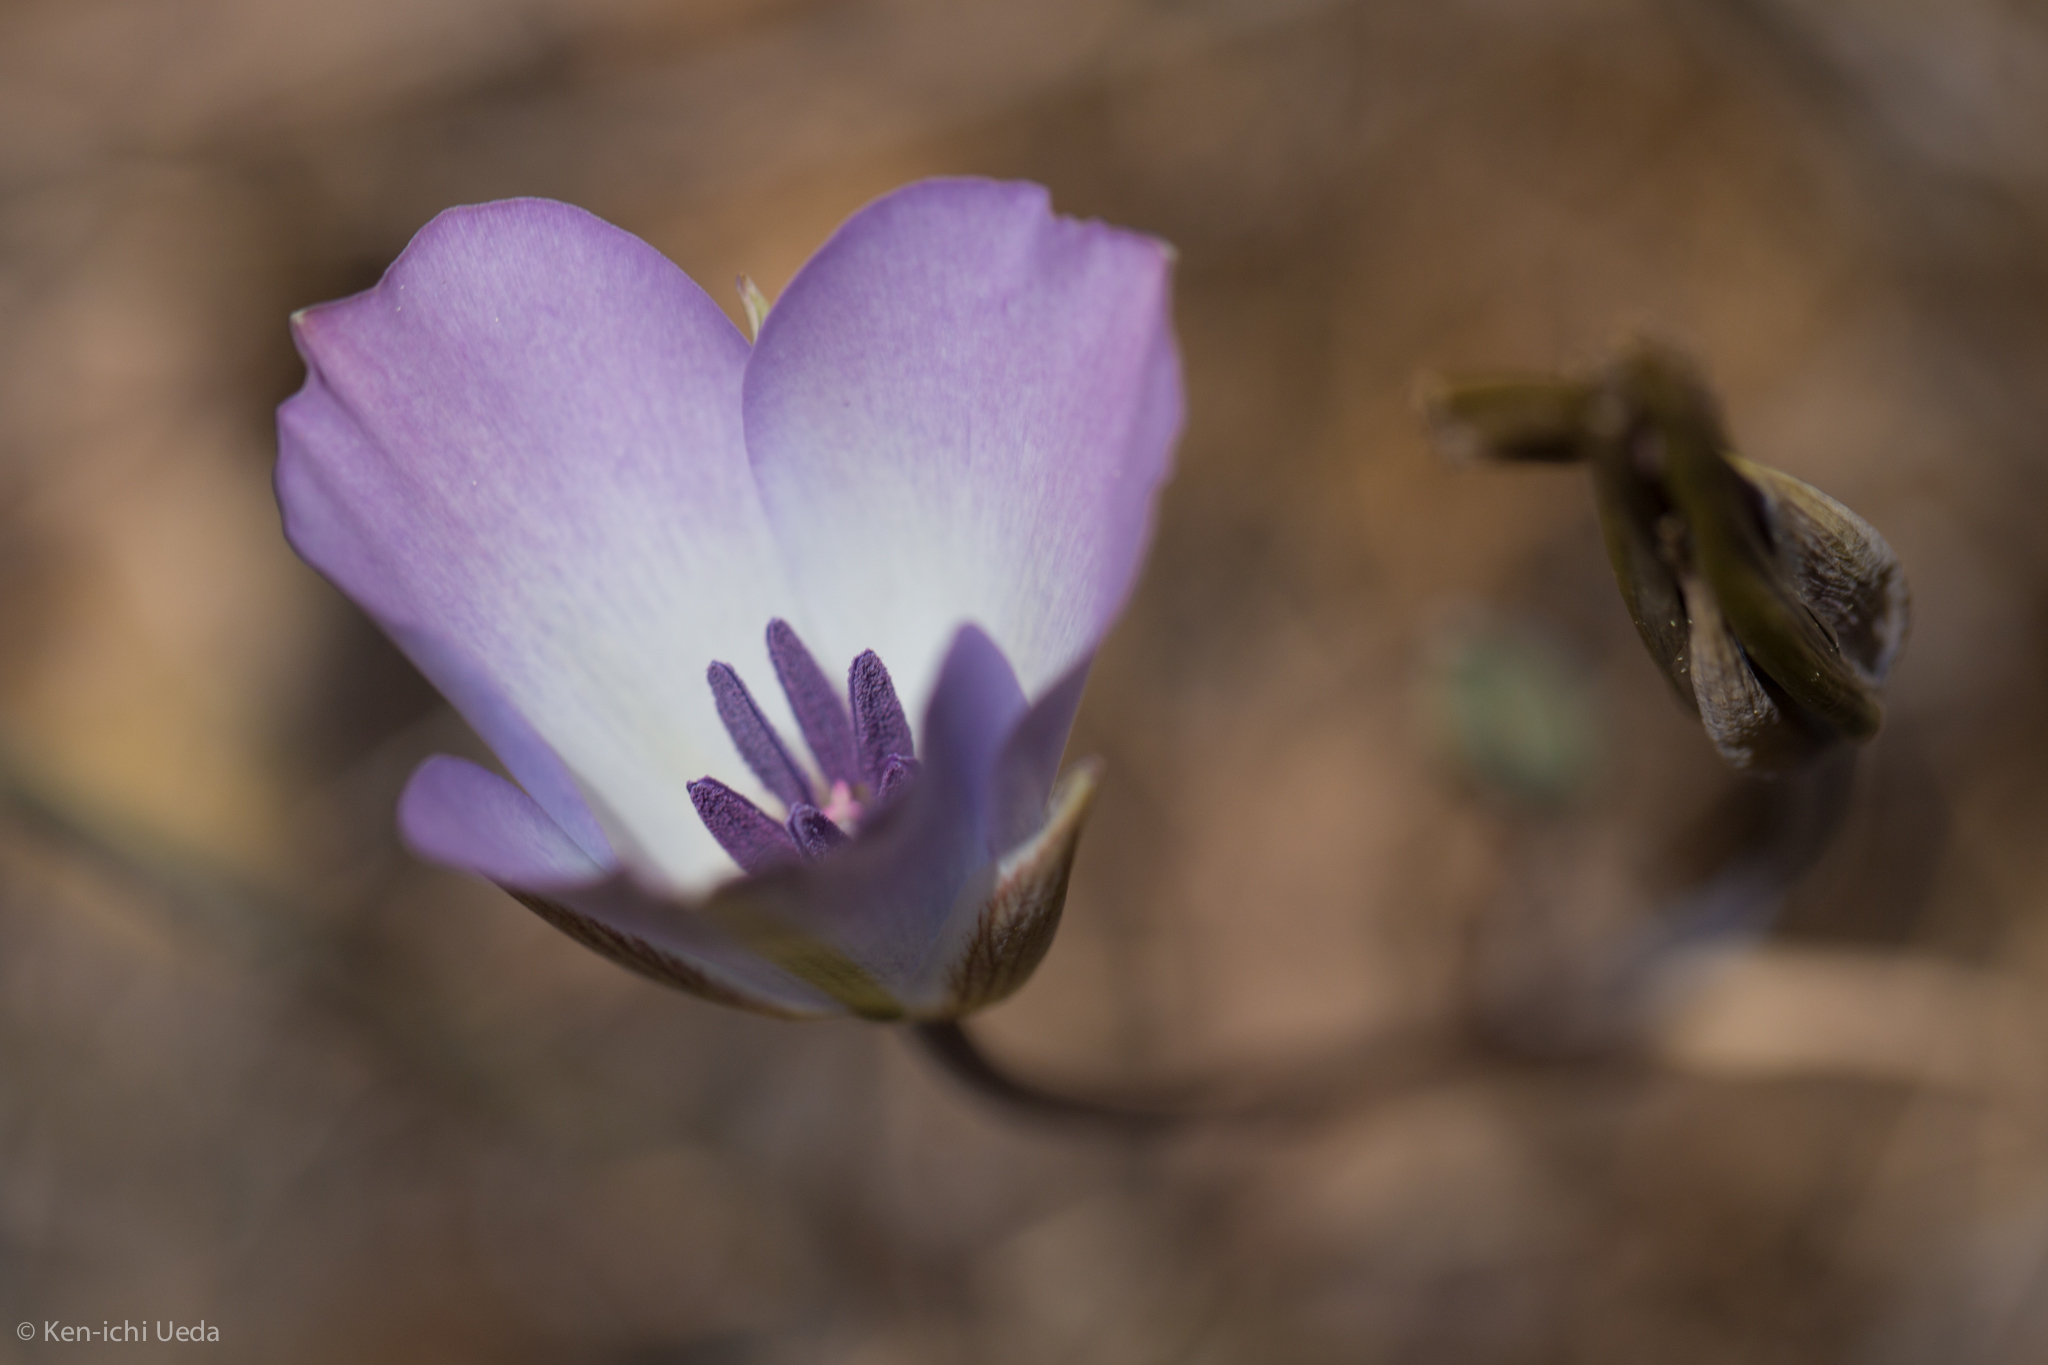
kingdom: Plantae
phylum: Tracheophyta
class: Liliopsida
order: Liliales
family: Liliaceae
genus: Calochortus
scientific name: Calochortus invenustus
